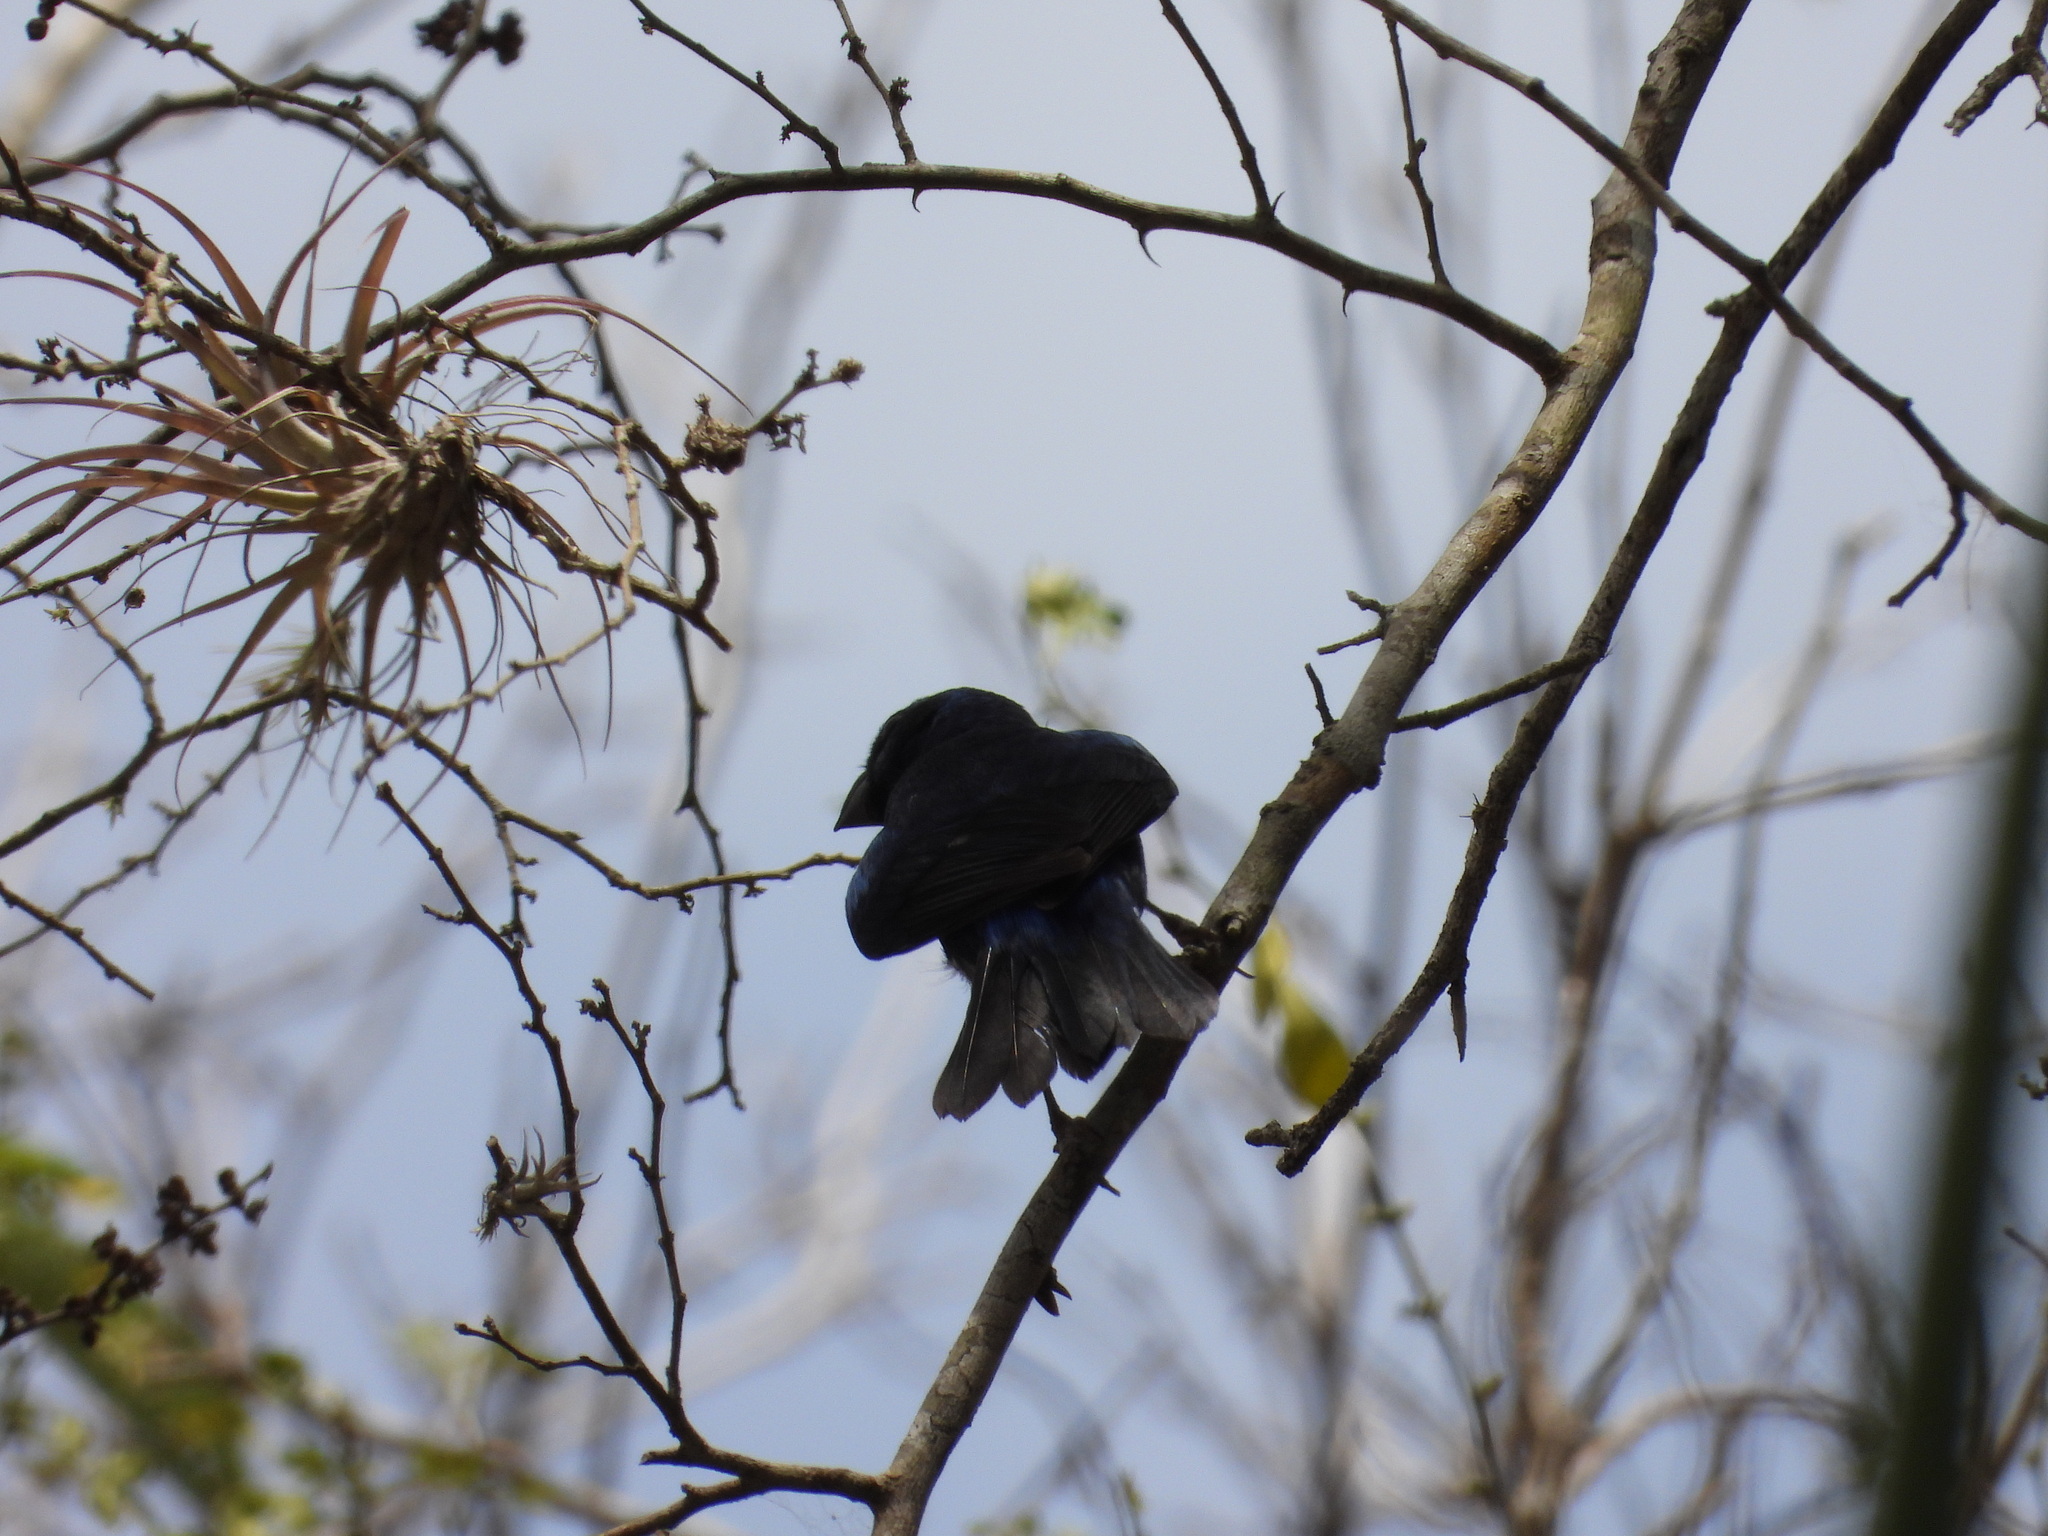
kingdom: Animalia
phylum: Chordata
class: Aves
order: Passeriformes
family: Cardinalidae
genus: Cyanocompsa
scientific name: Cyanocompsa parellina
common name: Blue bunting
